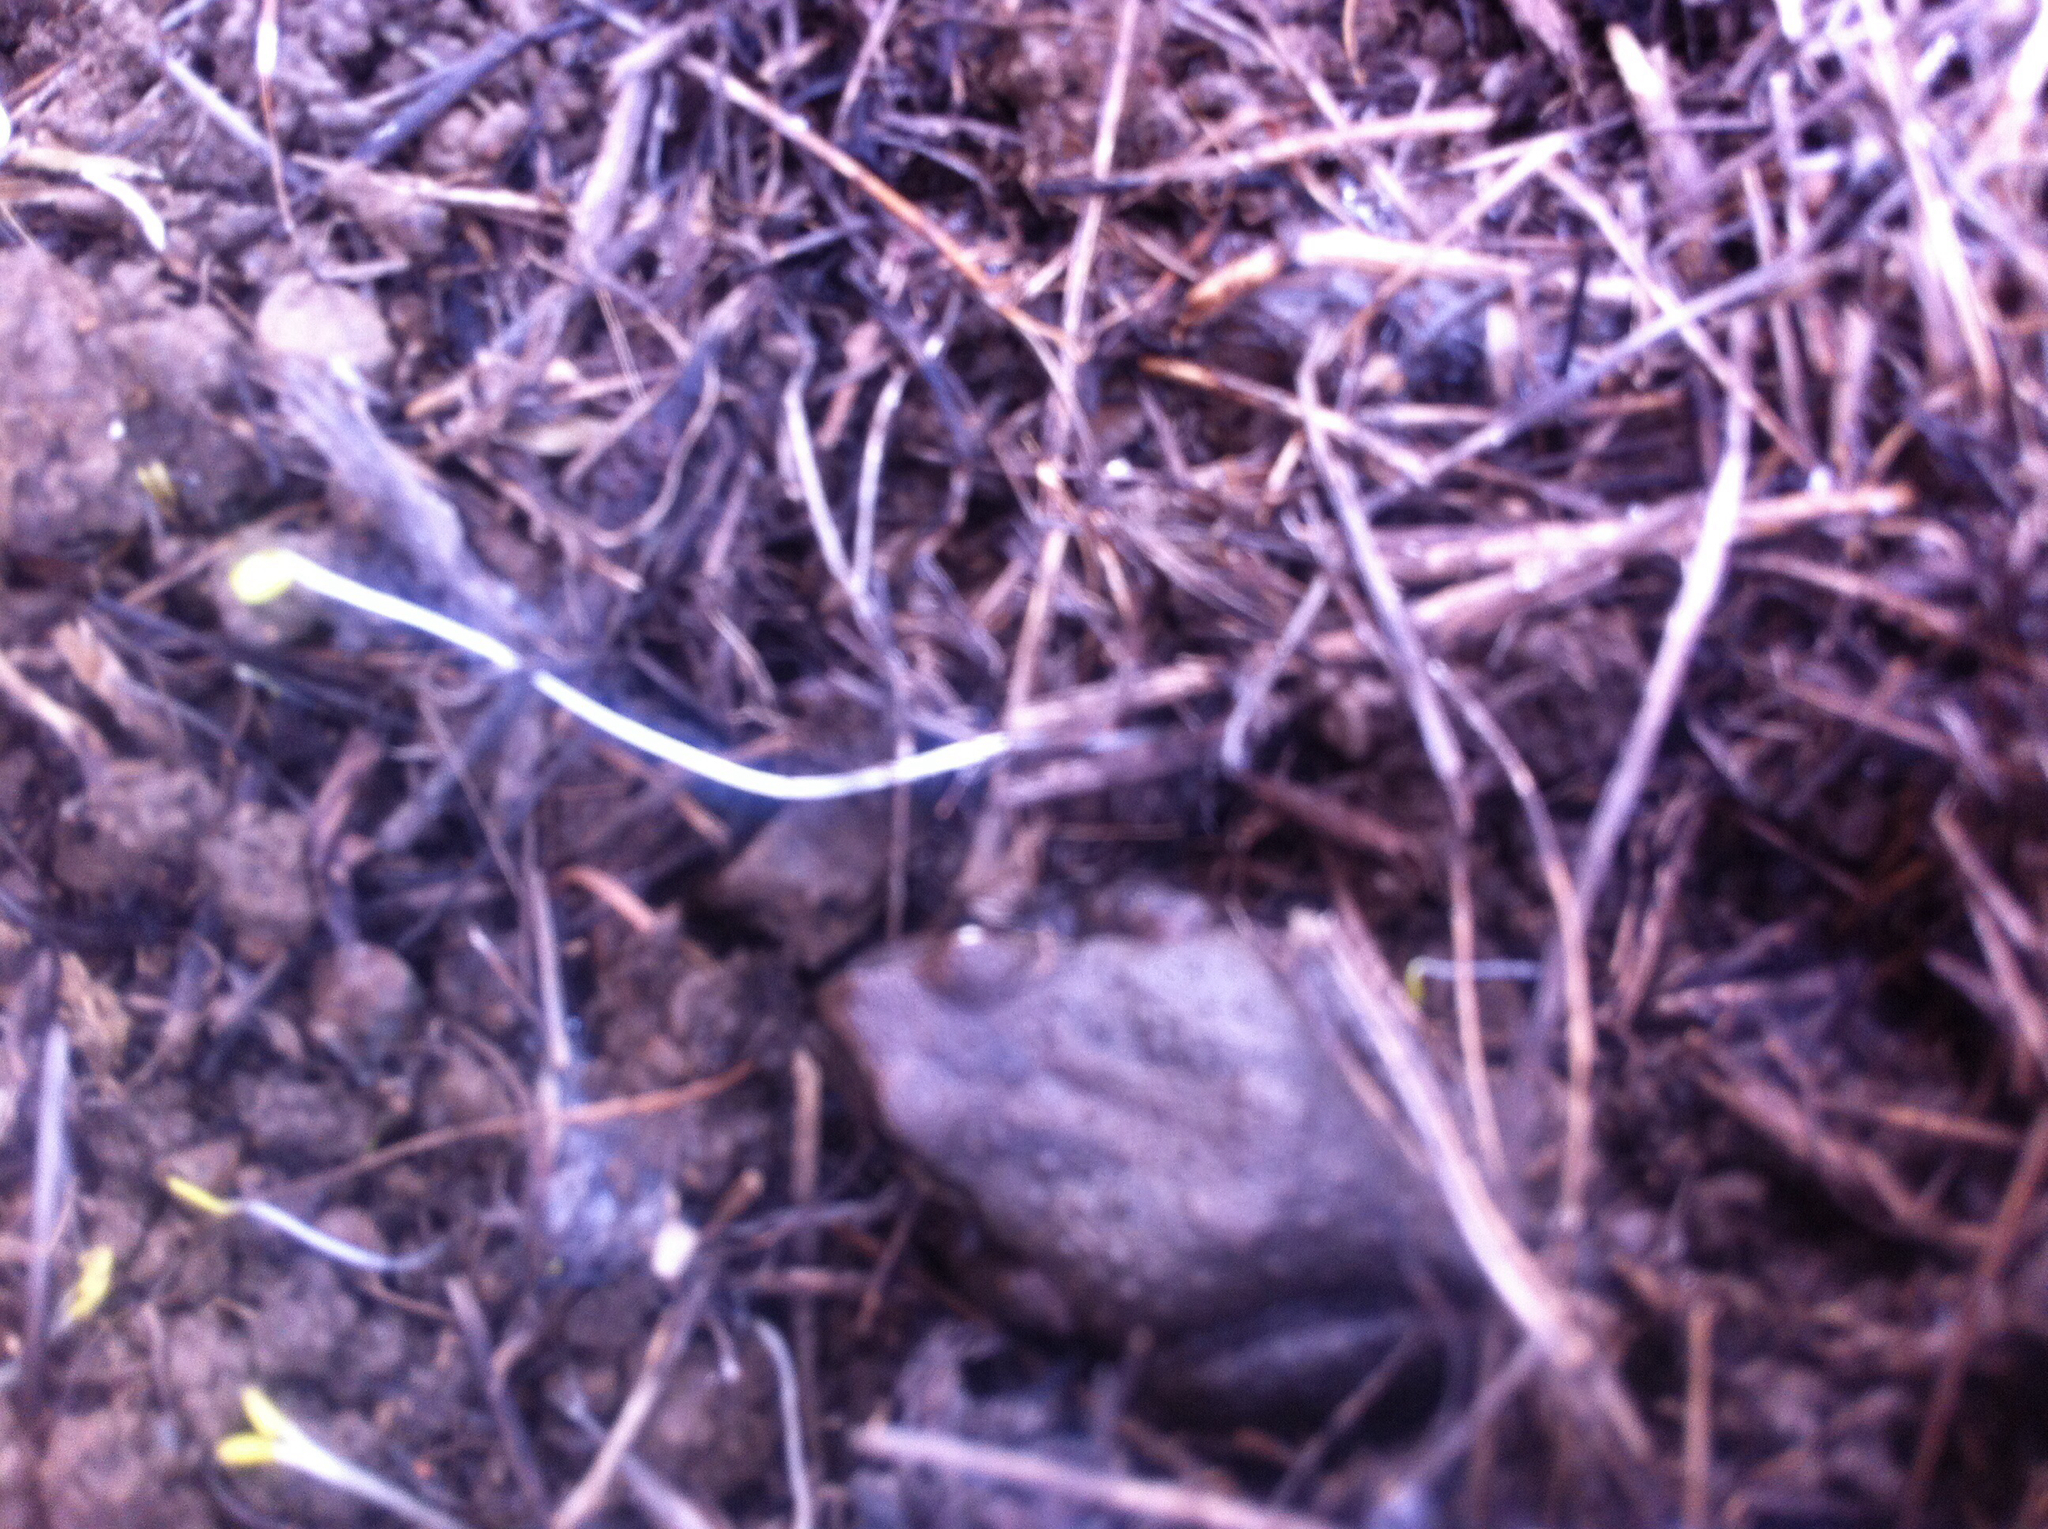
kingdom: Animalia
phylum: Chordata
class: Amphibia
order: Anura
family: Hylidae
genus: Pseudacris
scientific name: Pseudacris regilla
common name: Pacific chorus frog
